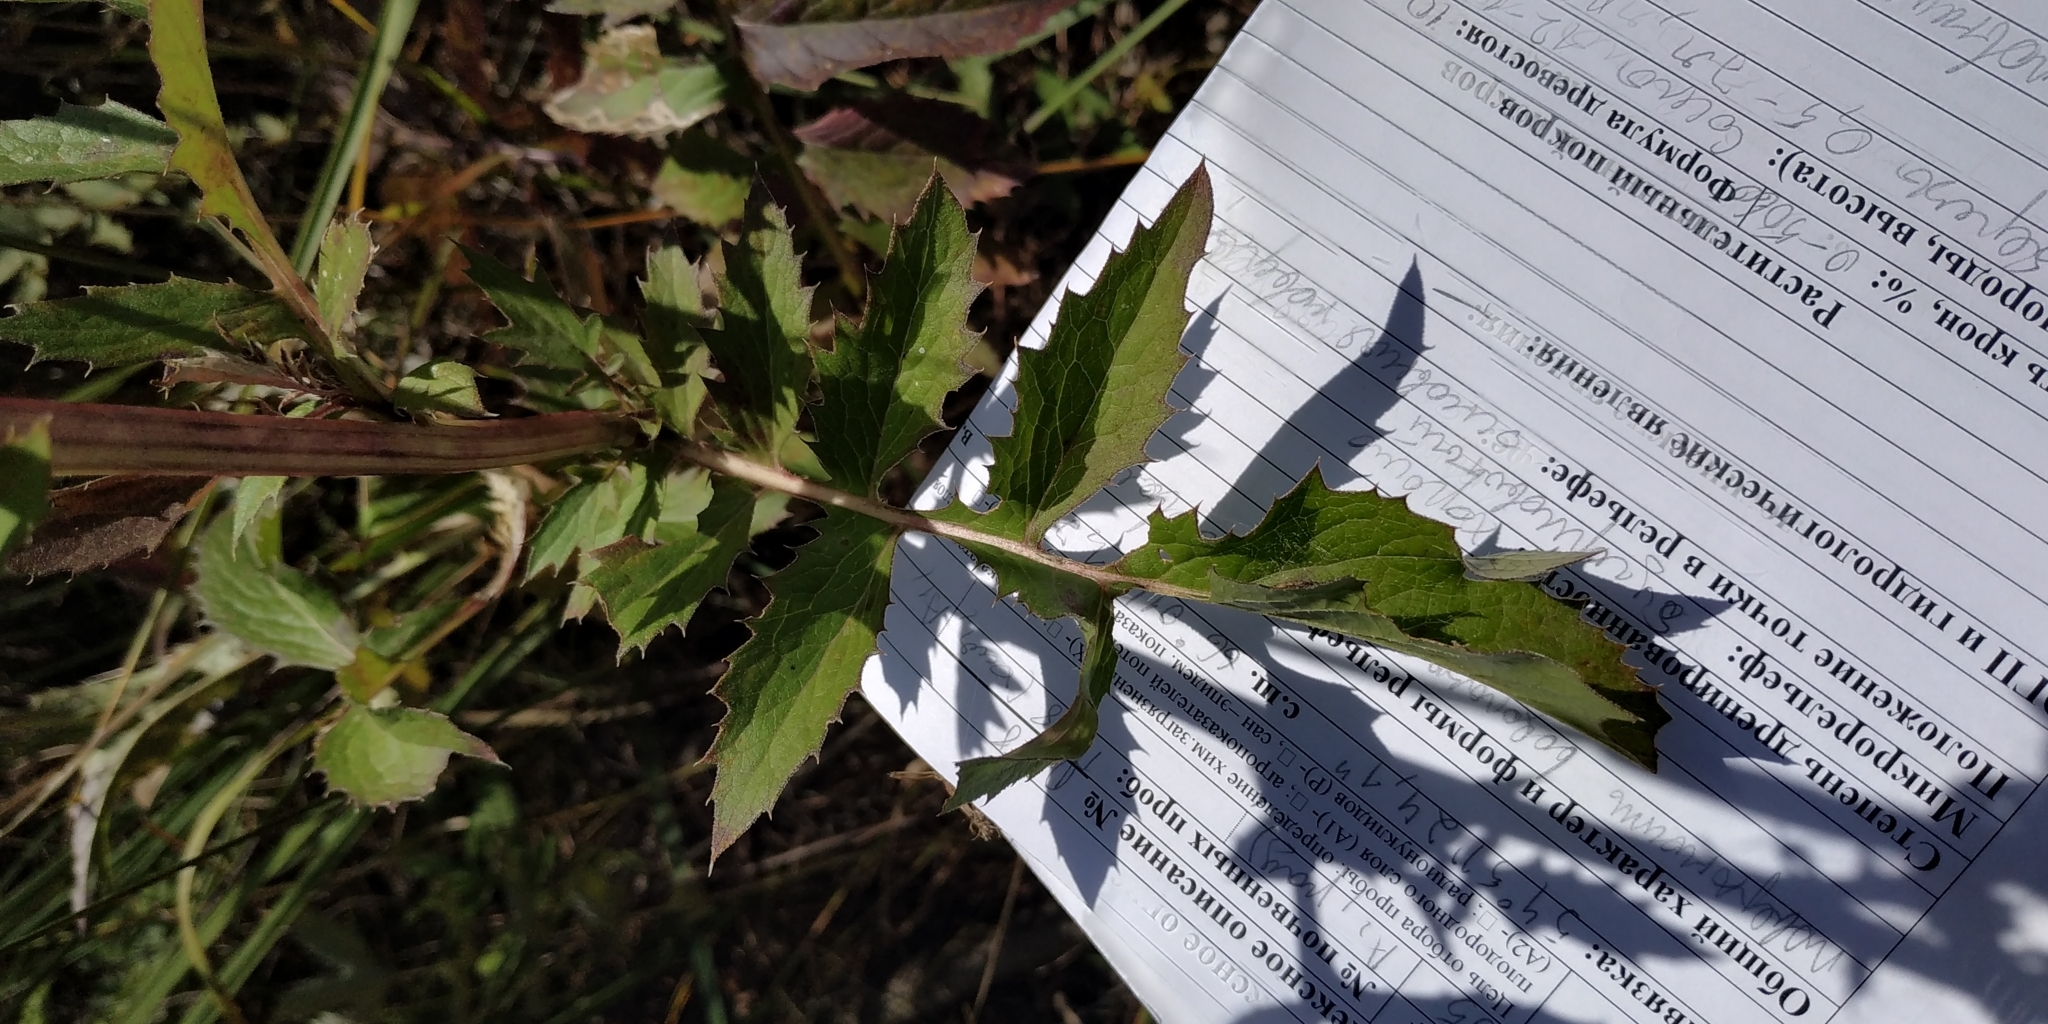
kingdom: Plantae
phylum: Tracheophyta
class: Magnoliopsida
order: Asterales
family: Asteraceae
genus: Serratula
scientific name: Serratula coronata
